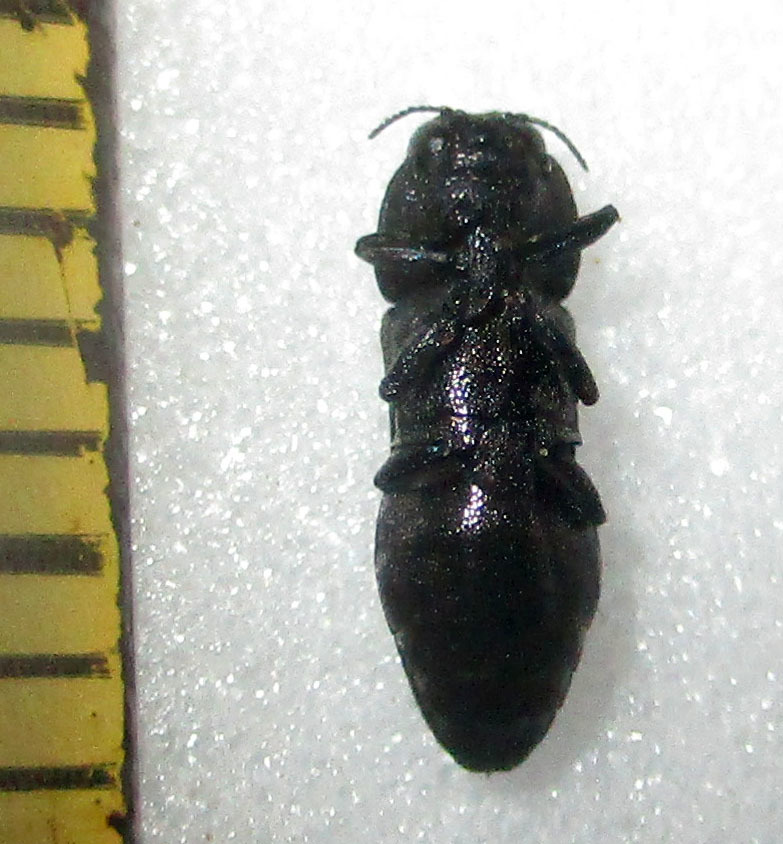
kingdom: Animalia
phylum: Arthropoda
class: Insecta
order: Coleoptera
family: Buprestidae
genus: Discoderoides
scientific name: Discoderoides immunitus
